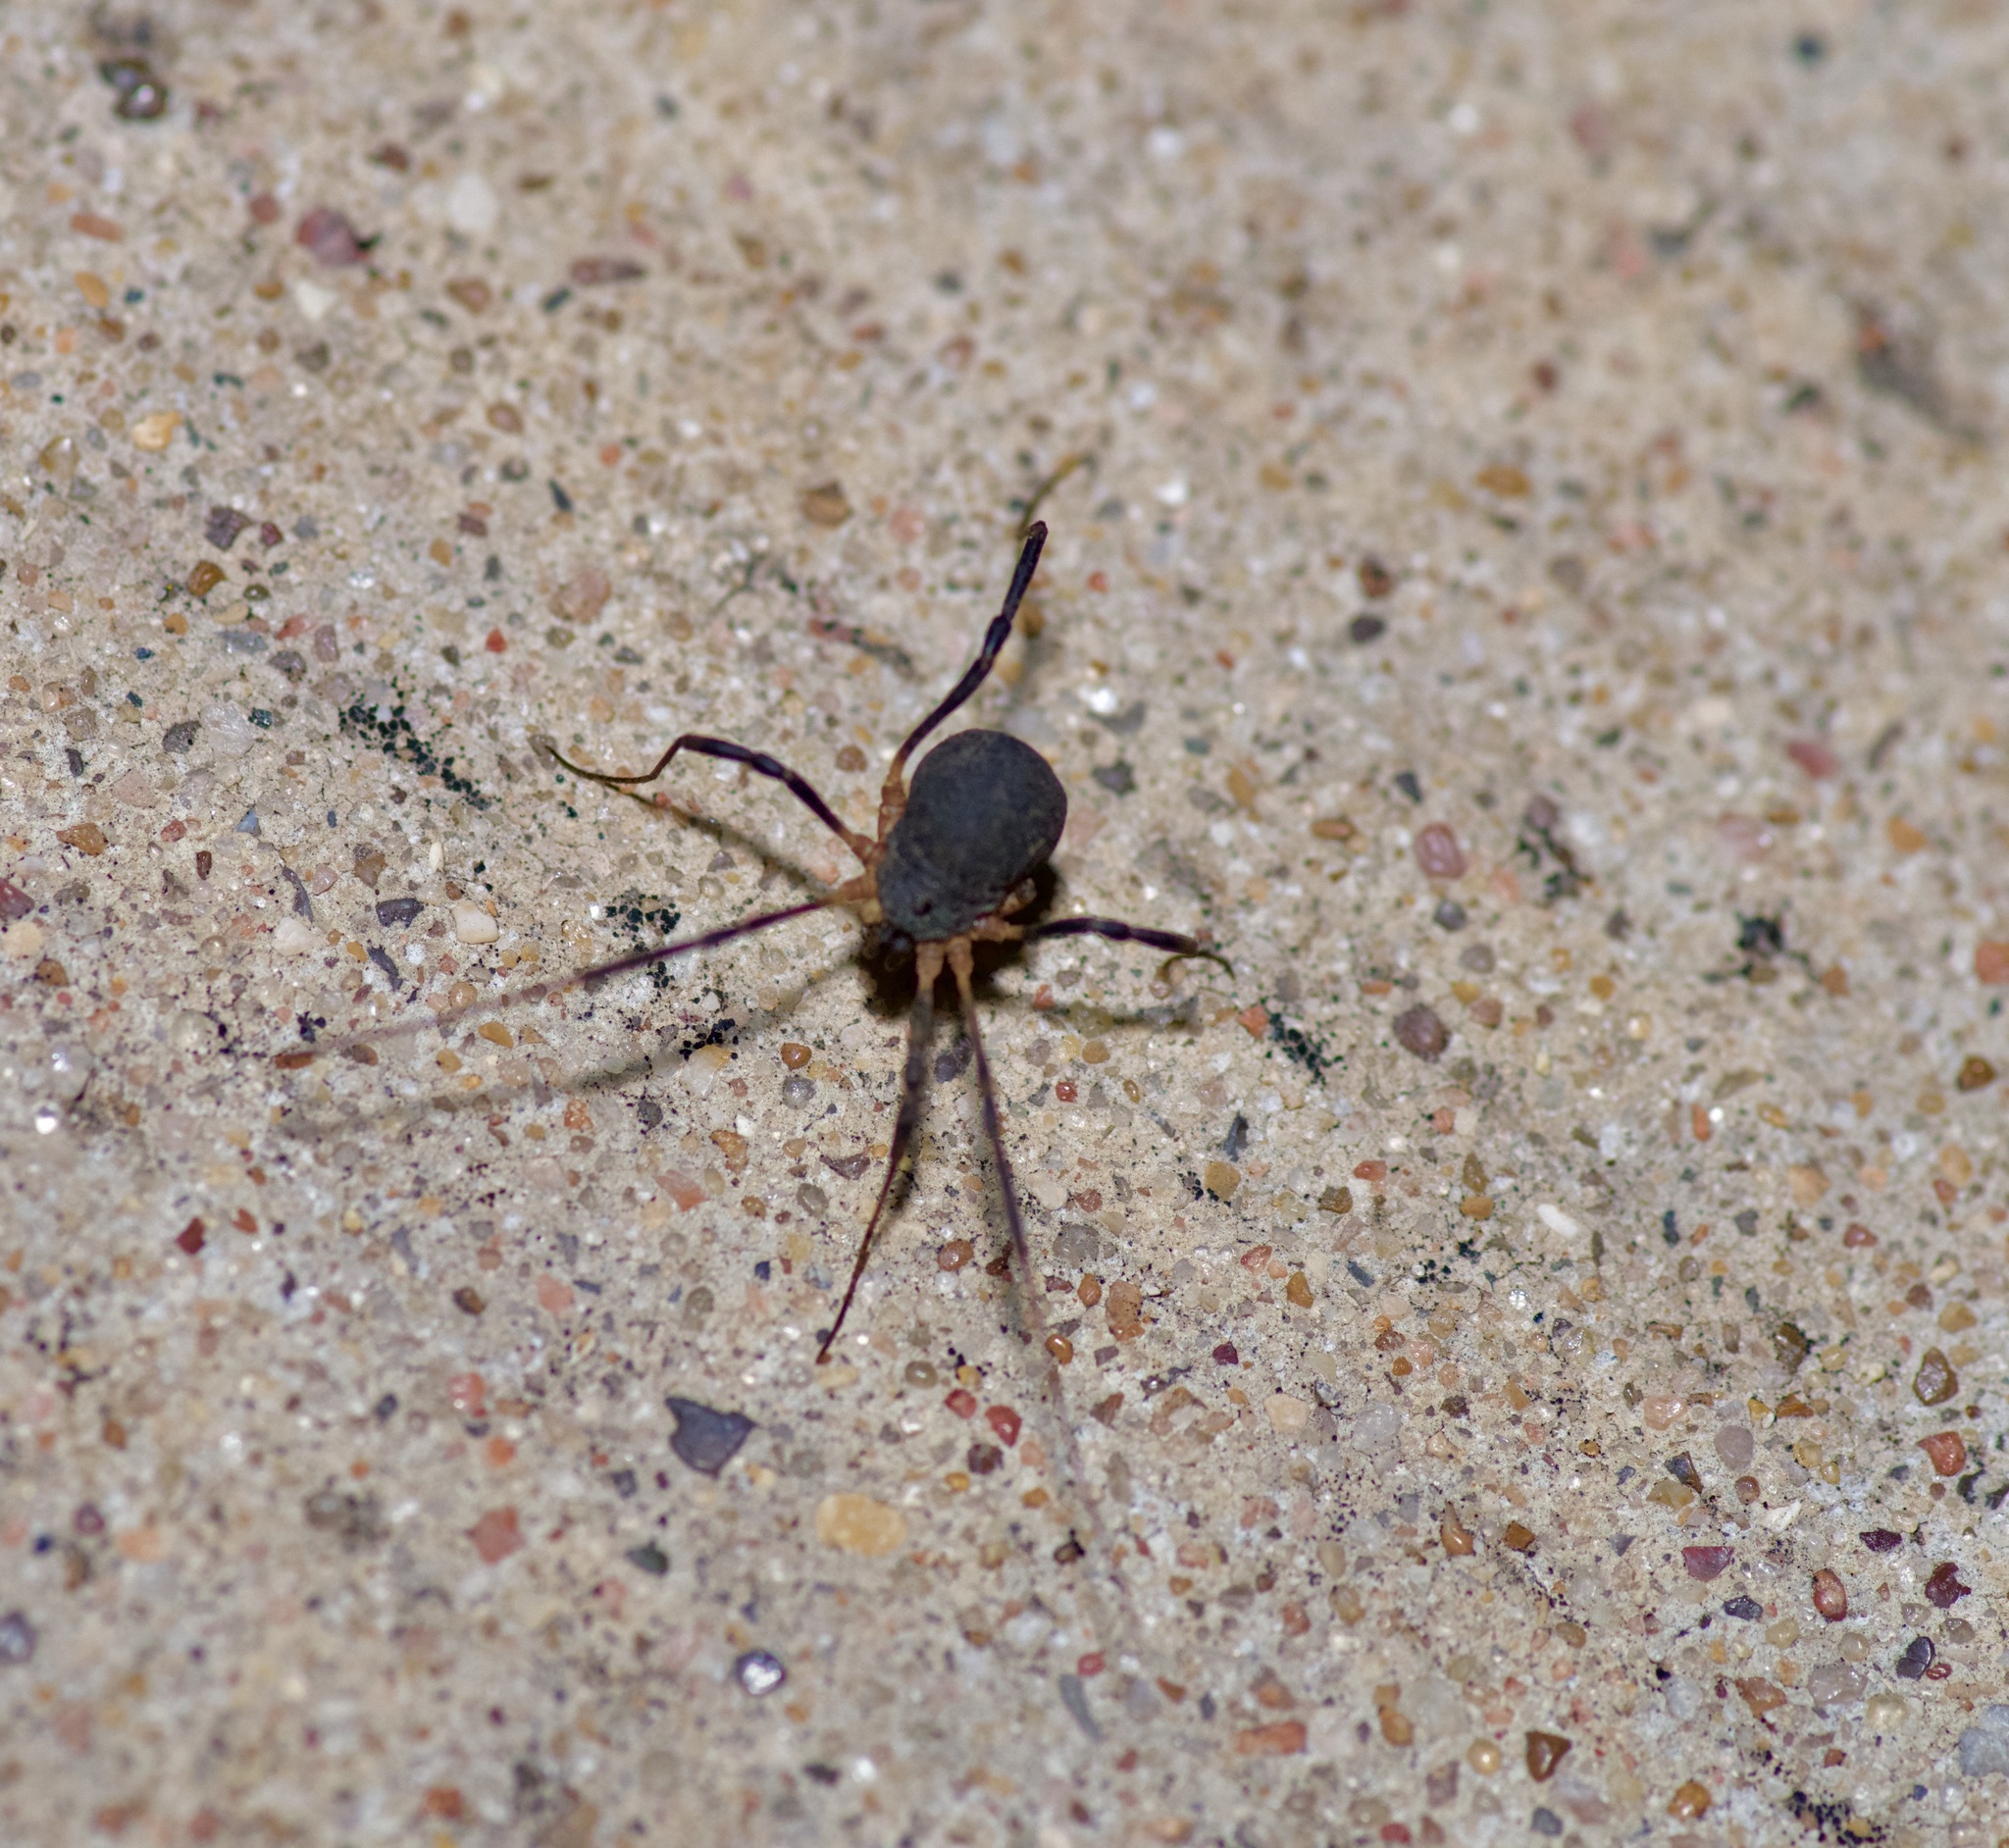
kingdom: Animalia
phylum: Arthropoda
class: Arachnida
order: Opiliones
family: Sclerosomatidae
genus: Eumesosoma
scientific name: Eumesosoma roeweri
